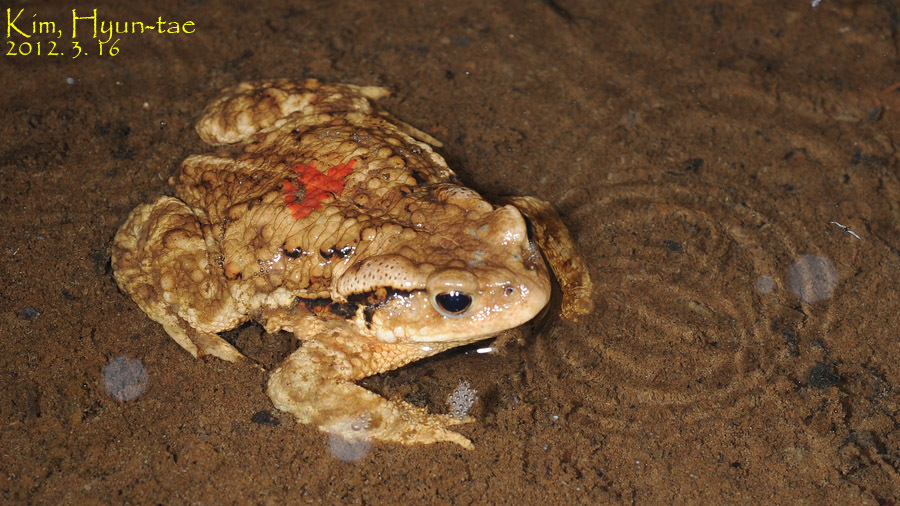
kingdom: Animalia
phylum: Chordata
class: Amphibia
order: Anura
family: Bufonidae
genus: Bufo
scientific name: Bufo gargarizans
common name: Asiatic toad
